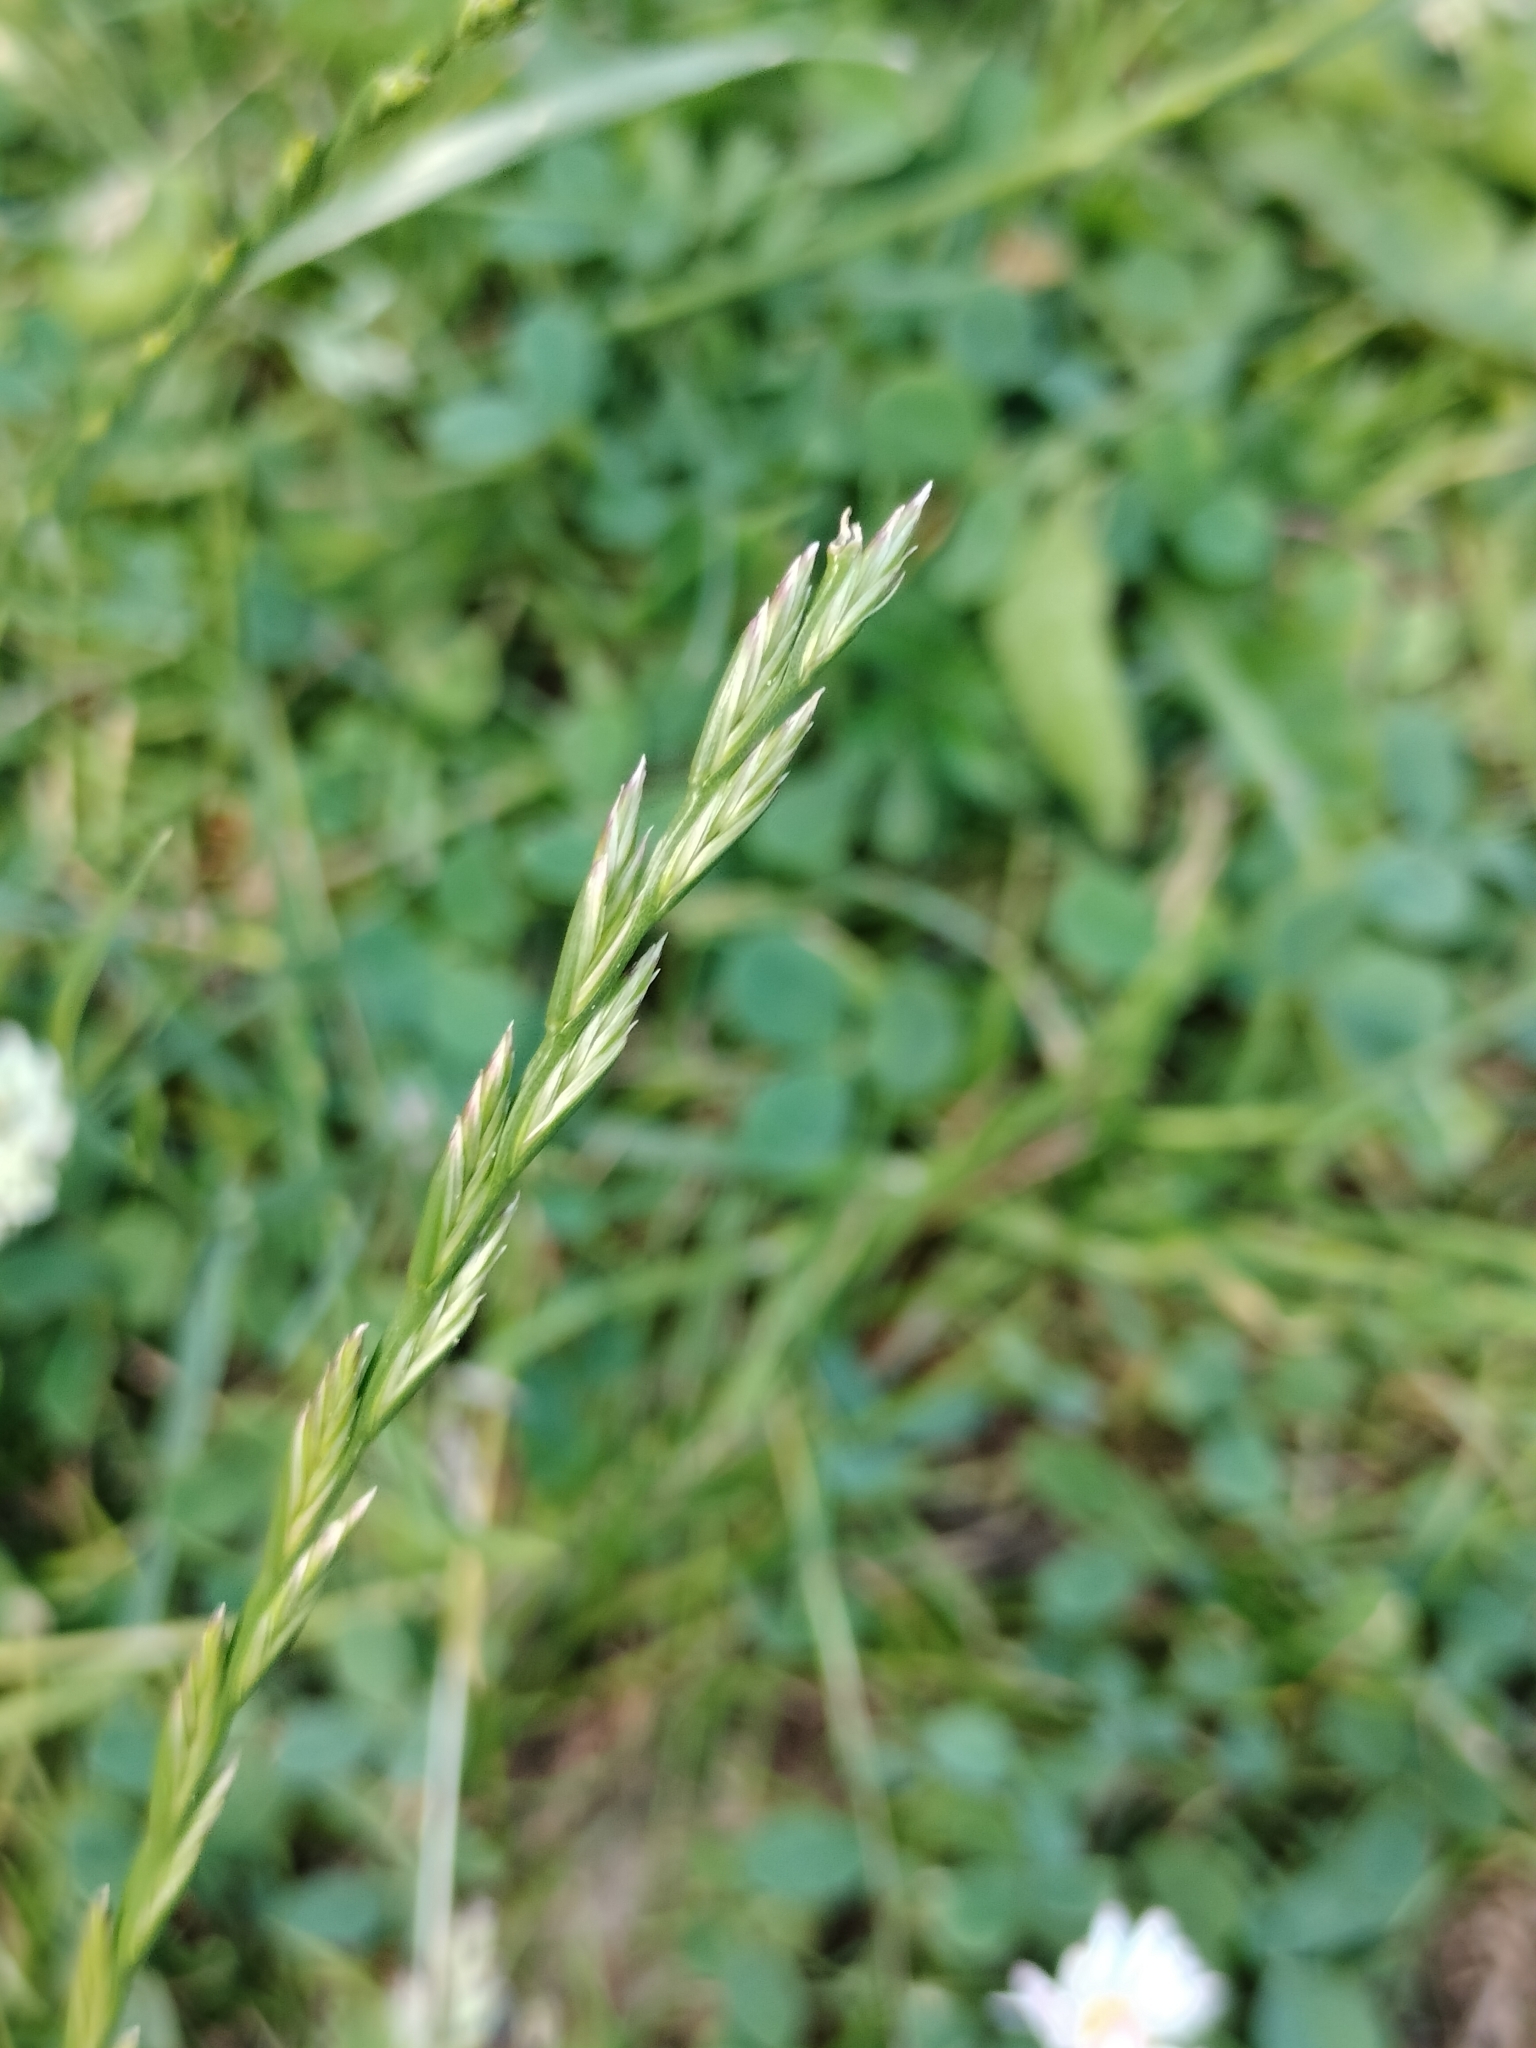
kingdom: Plantae
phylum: Tracheophyta
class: Liliopsida
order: Poales
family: Poaceae
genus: Lolium
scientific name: Lolium perenne
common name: Perennial ryegrass
